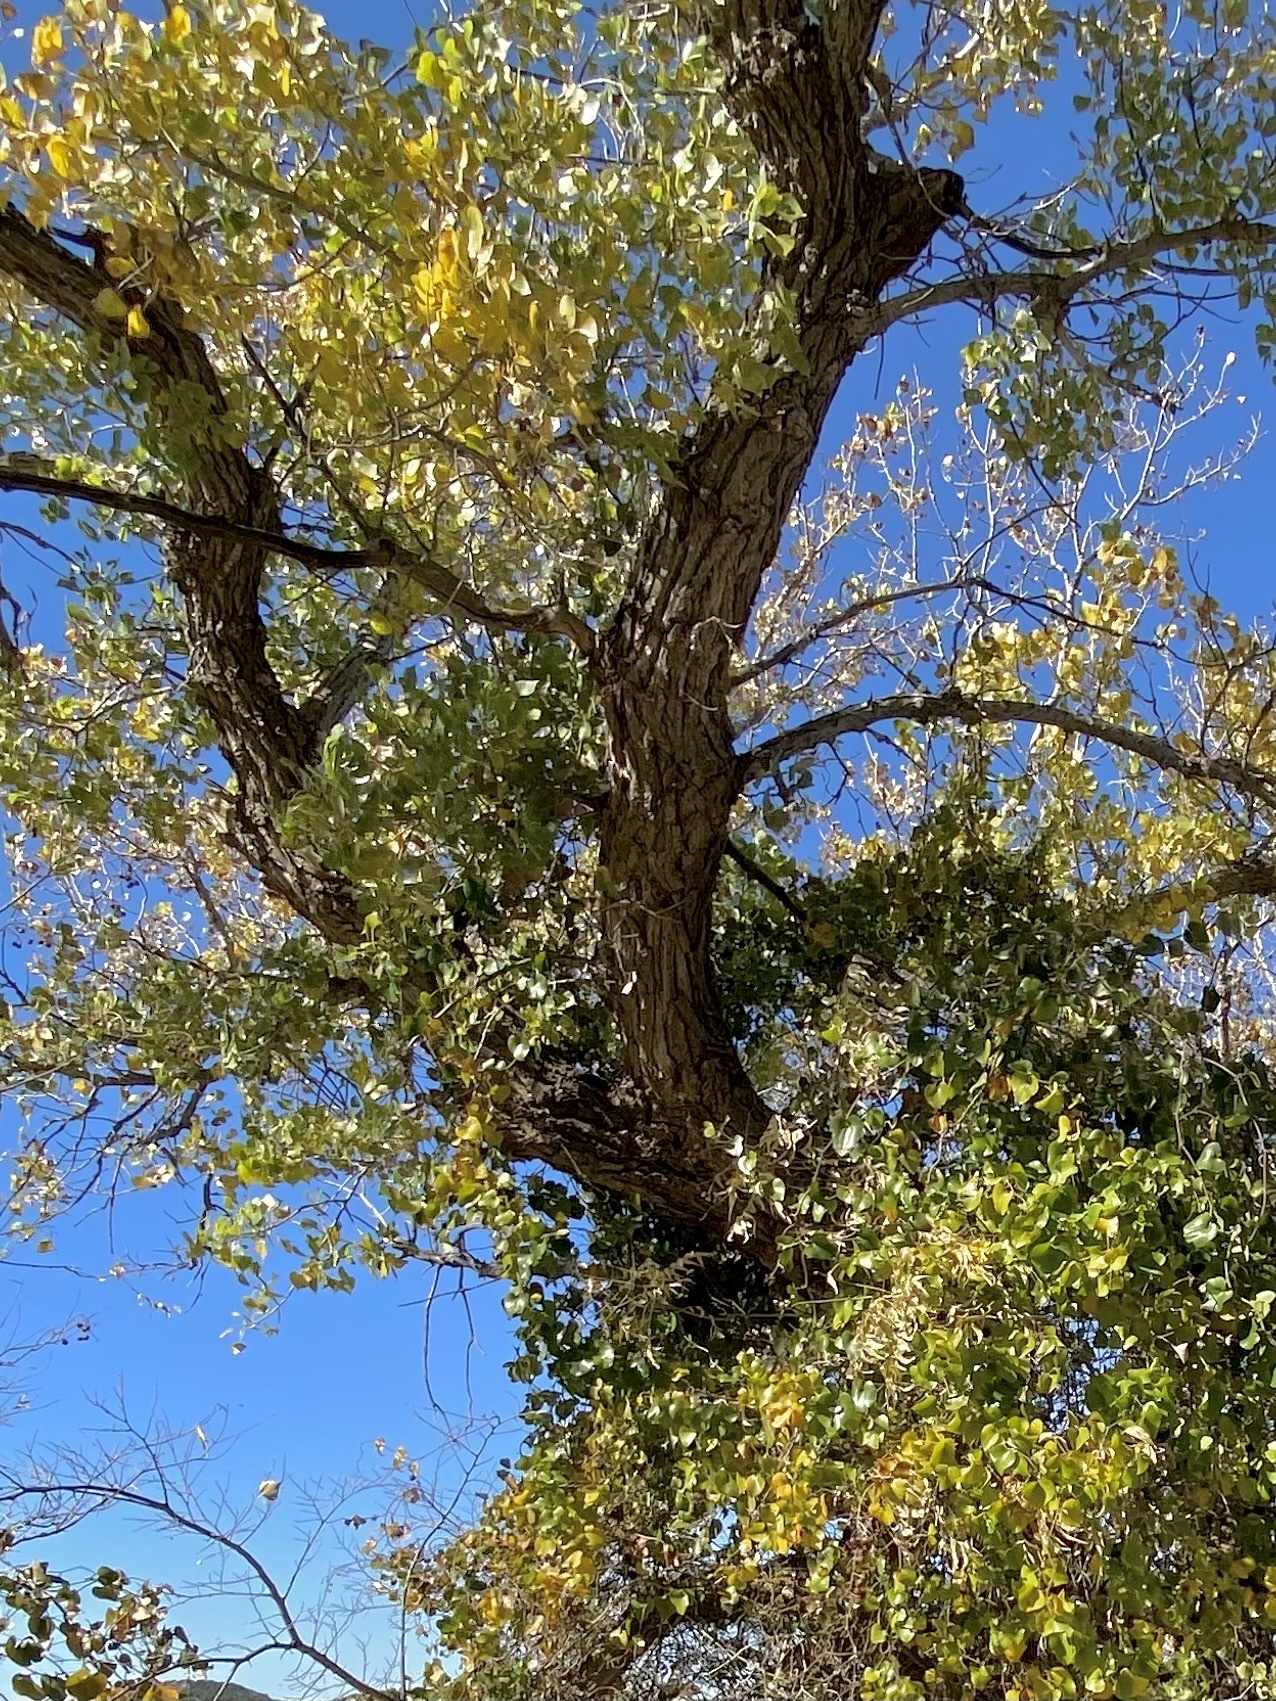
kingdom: Plantae
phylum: Tracheophyta
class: Magnoliopsida
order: Malpighiales
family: Salicaceae
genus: Populus
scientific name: Populus deltoides
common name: Eastern cottonwood
